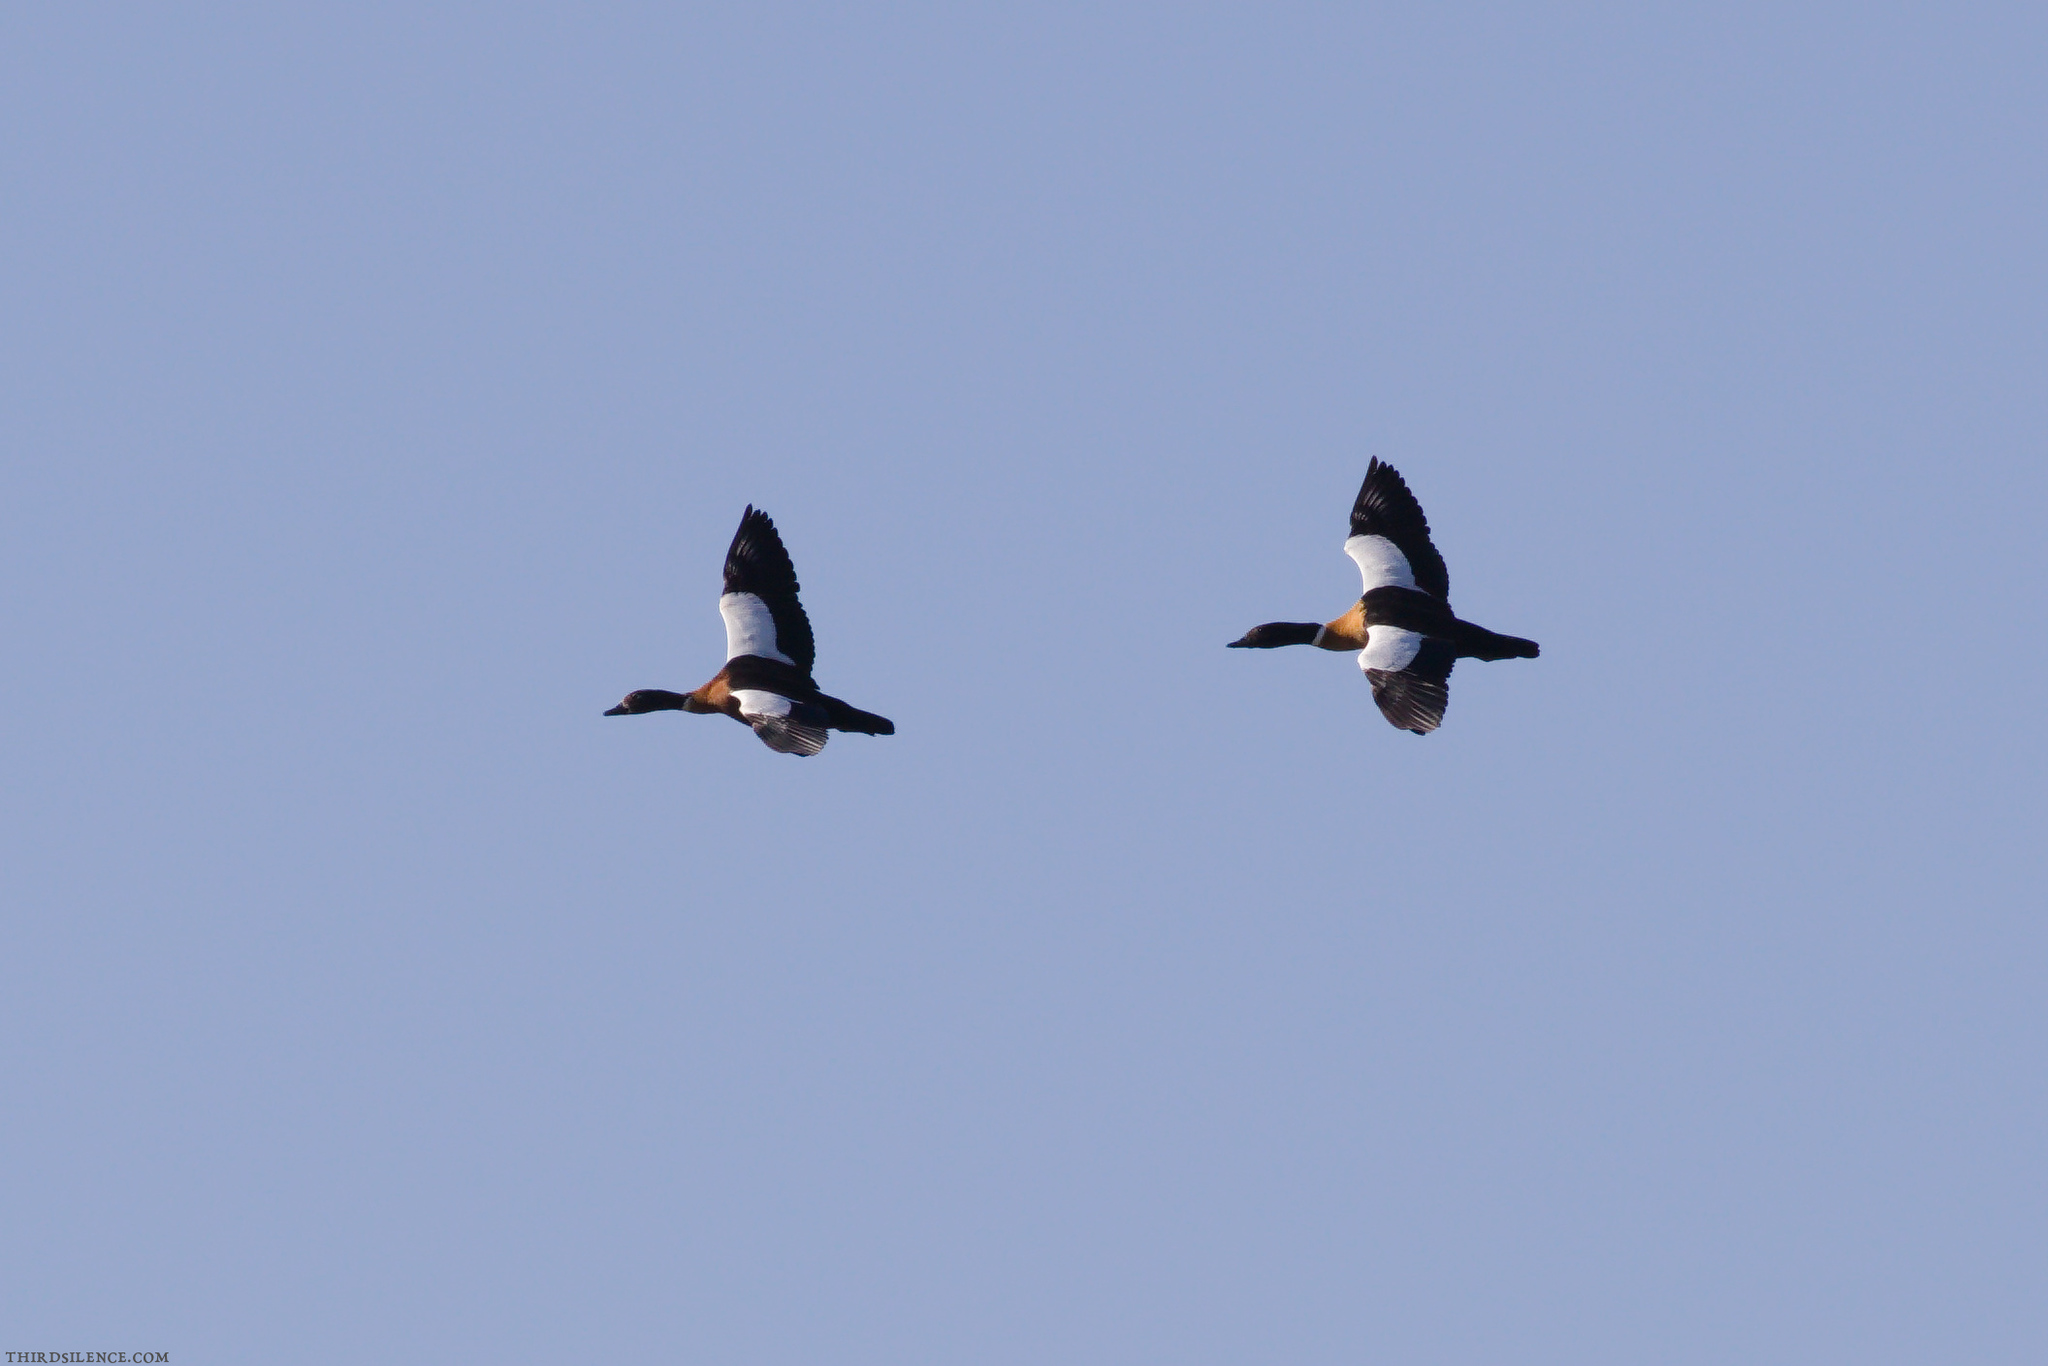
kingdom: Animalia
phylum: Chordata
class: Aves
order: Anseriformes
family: Anatidae
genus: Tadorna
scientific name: Tadorna tadornoides
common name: Australian shelduck
